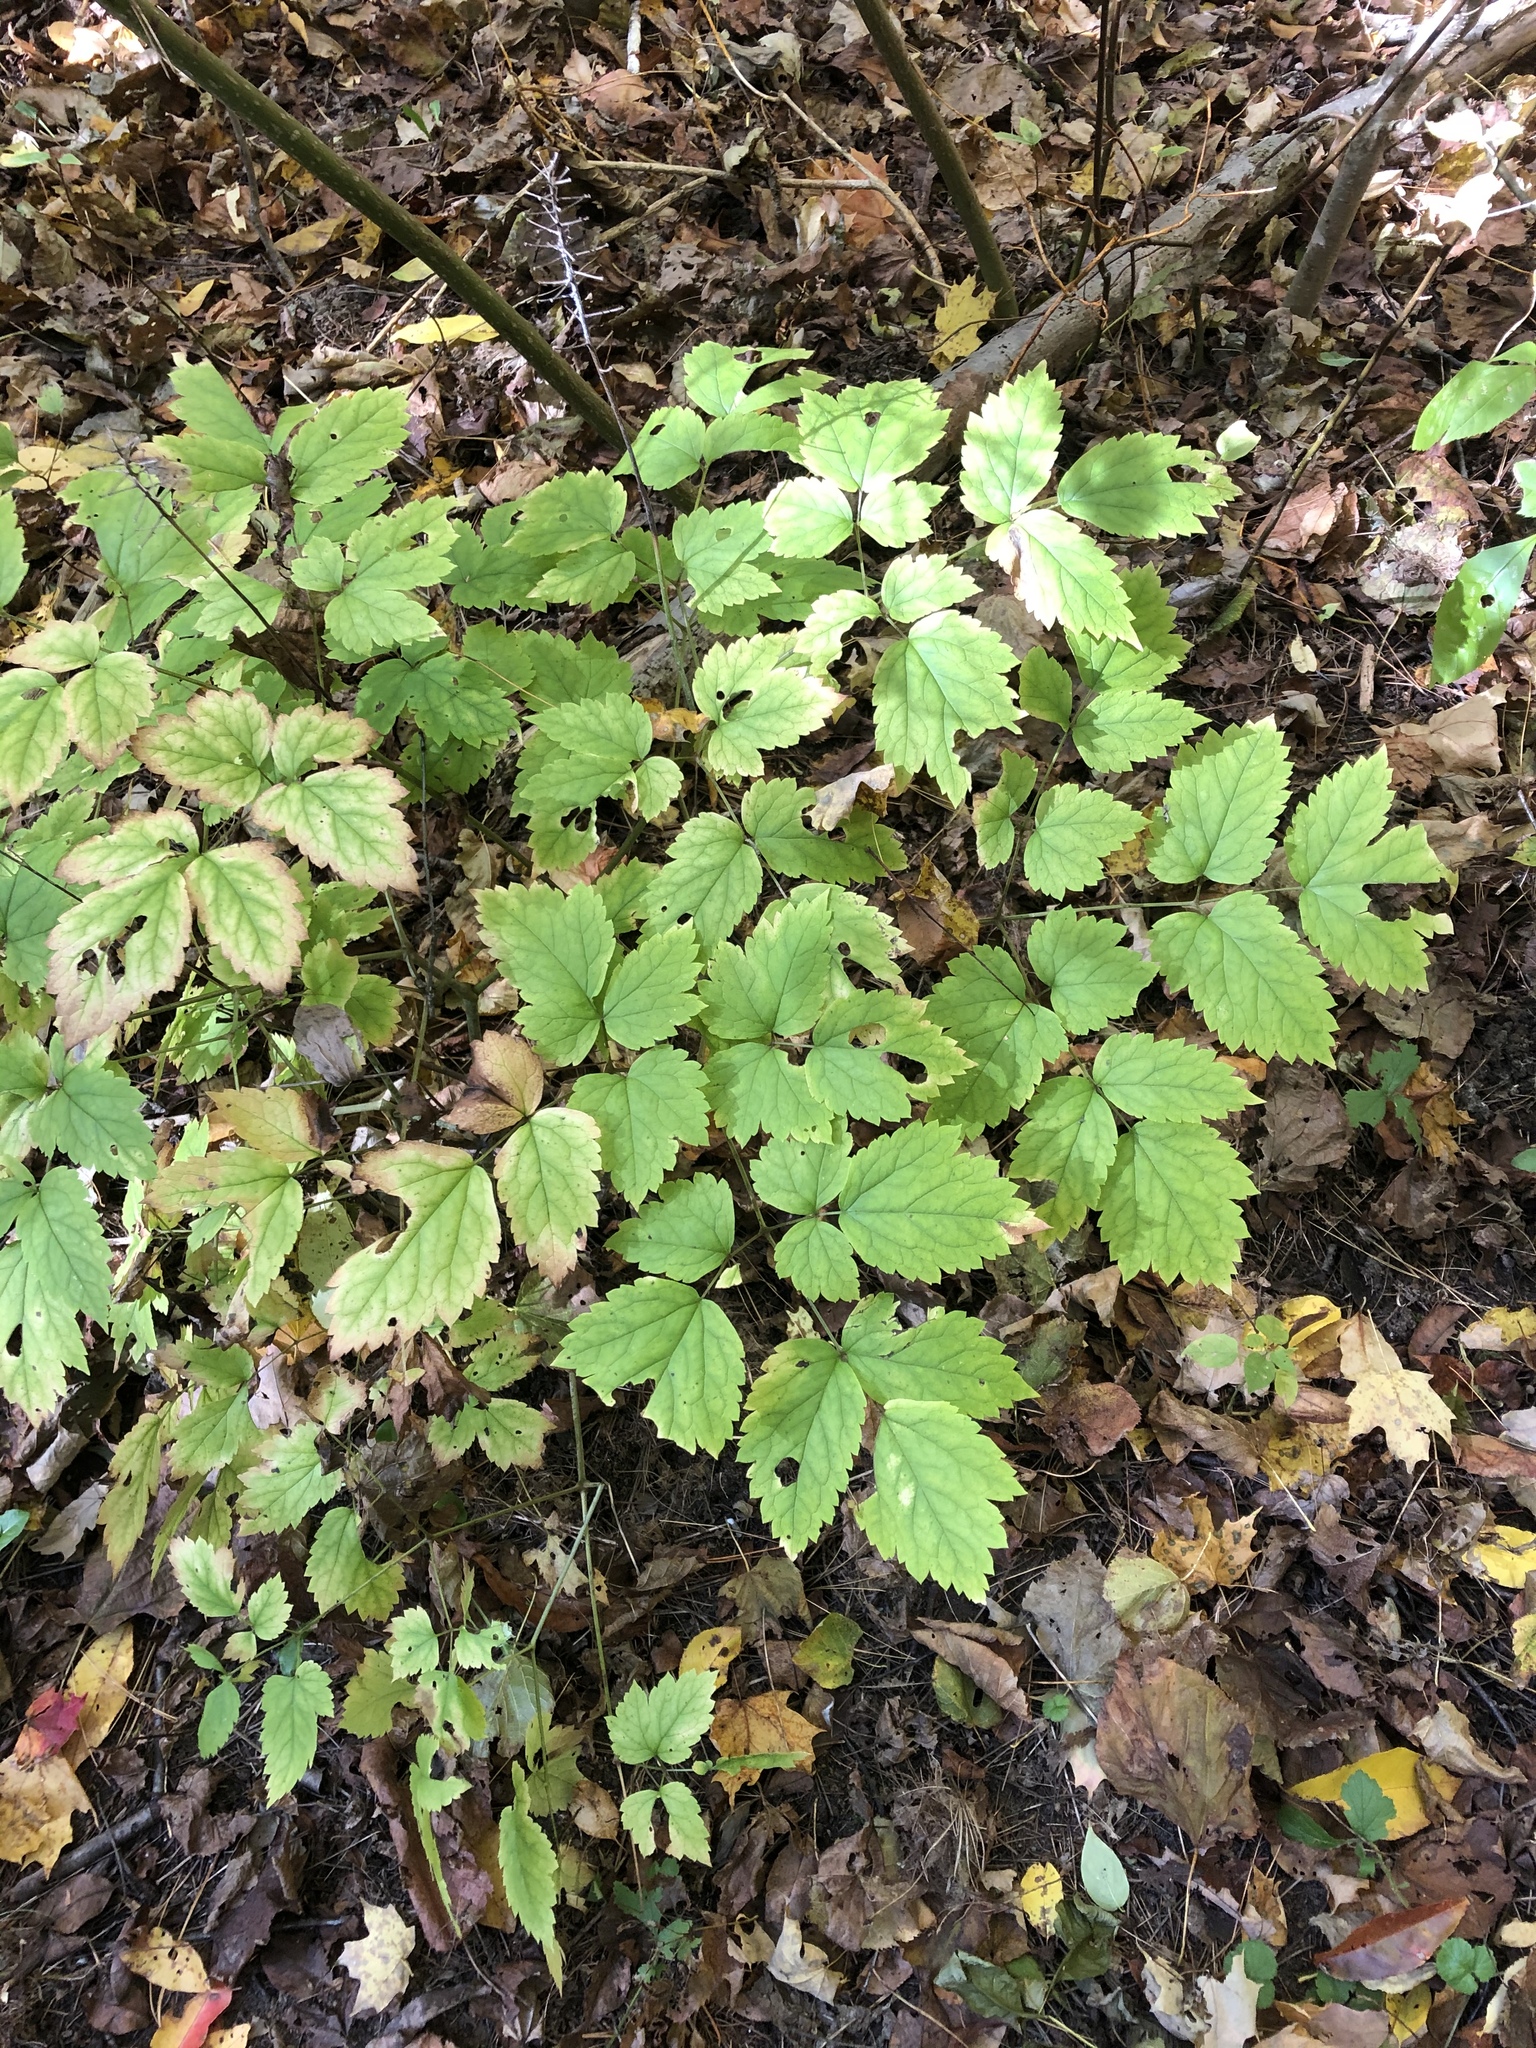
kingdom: Animalia
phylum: Arthropoda
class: Insecta
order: Diptera
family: Agromyzidae
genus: Phytomyza
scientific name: Phytomyza
